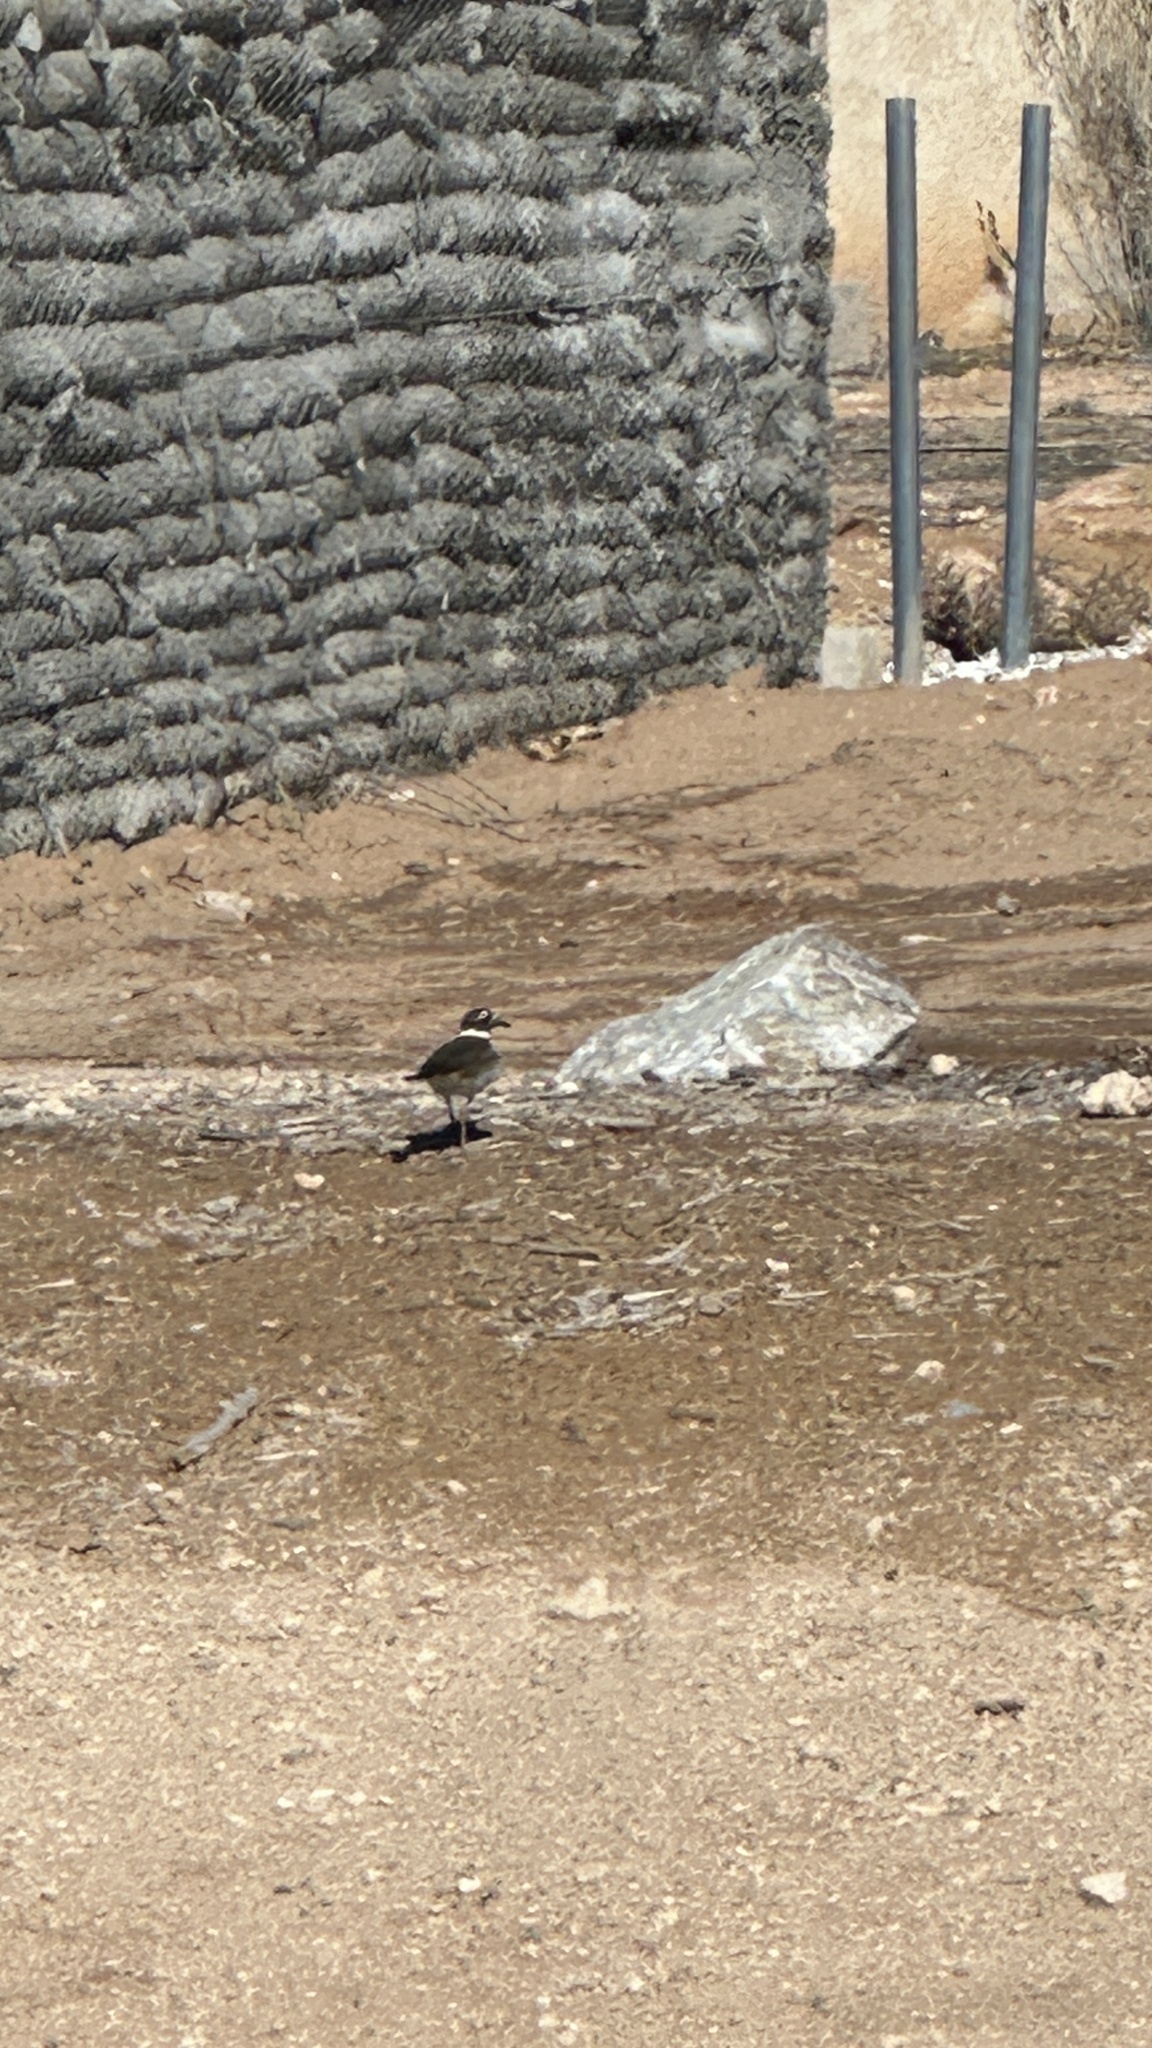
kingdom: Animalia
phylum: Chordata
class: Aves
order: Charadriiformes
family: Charadriidae
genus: Charadrius
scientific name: Charadrius vociferus
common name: Killdeer
